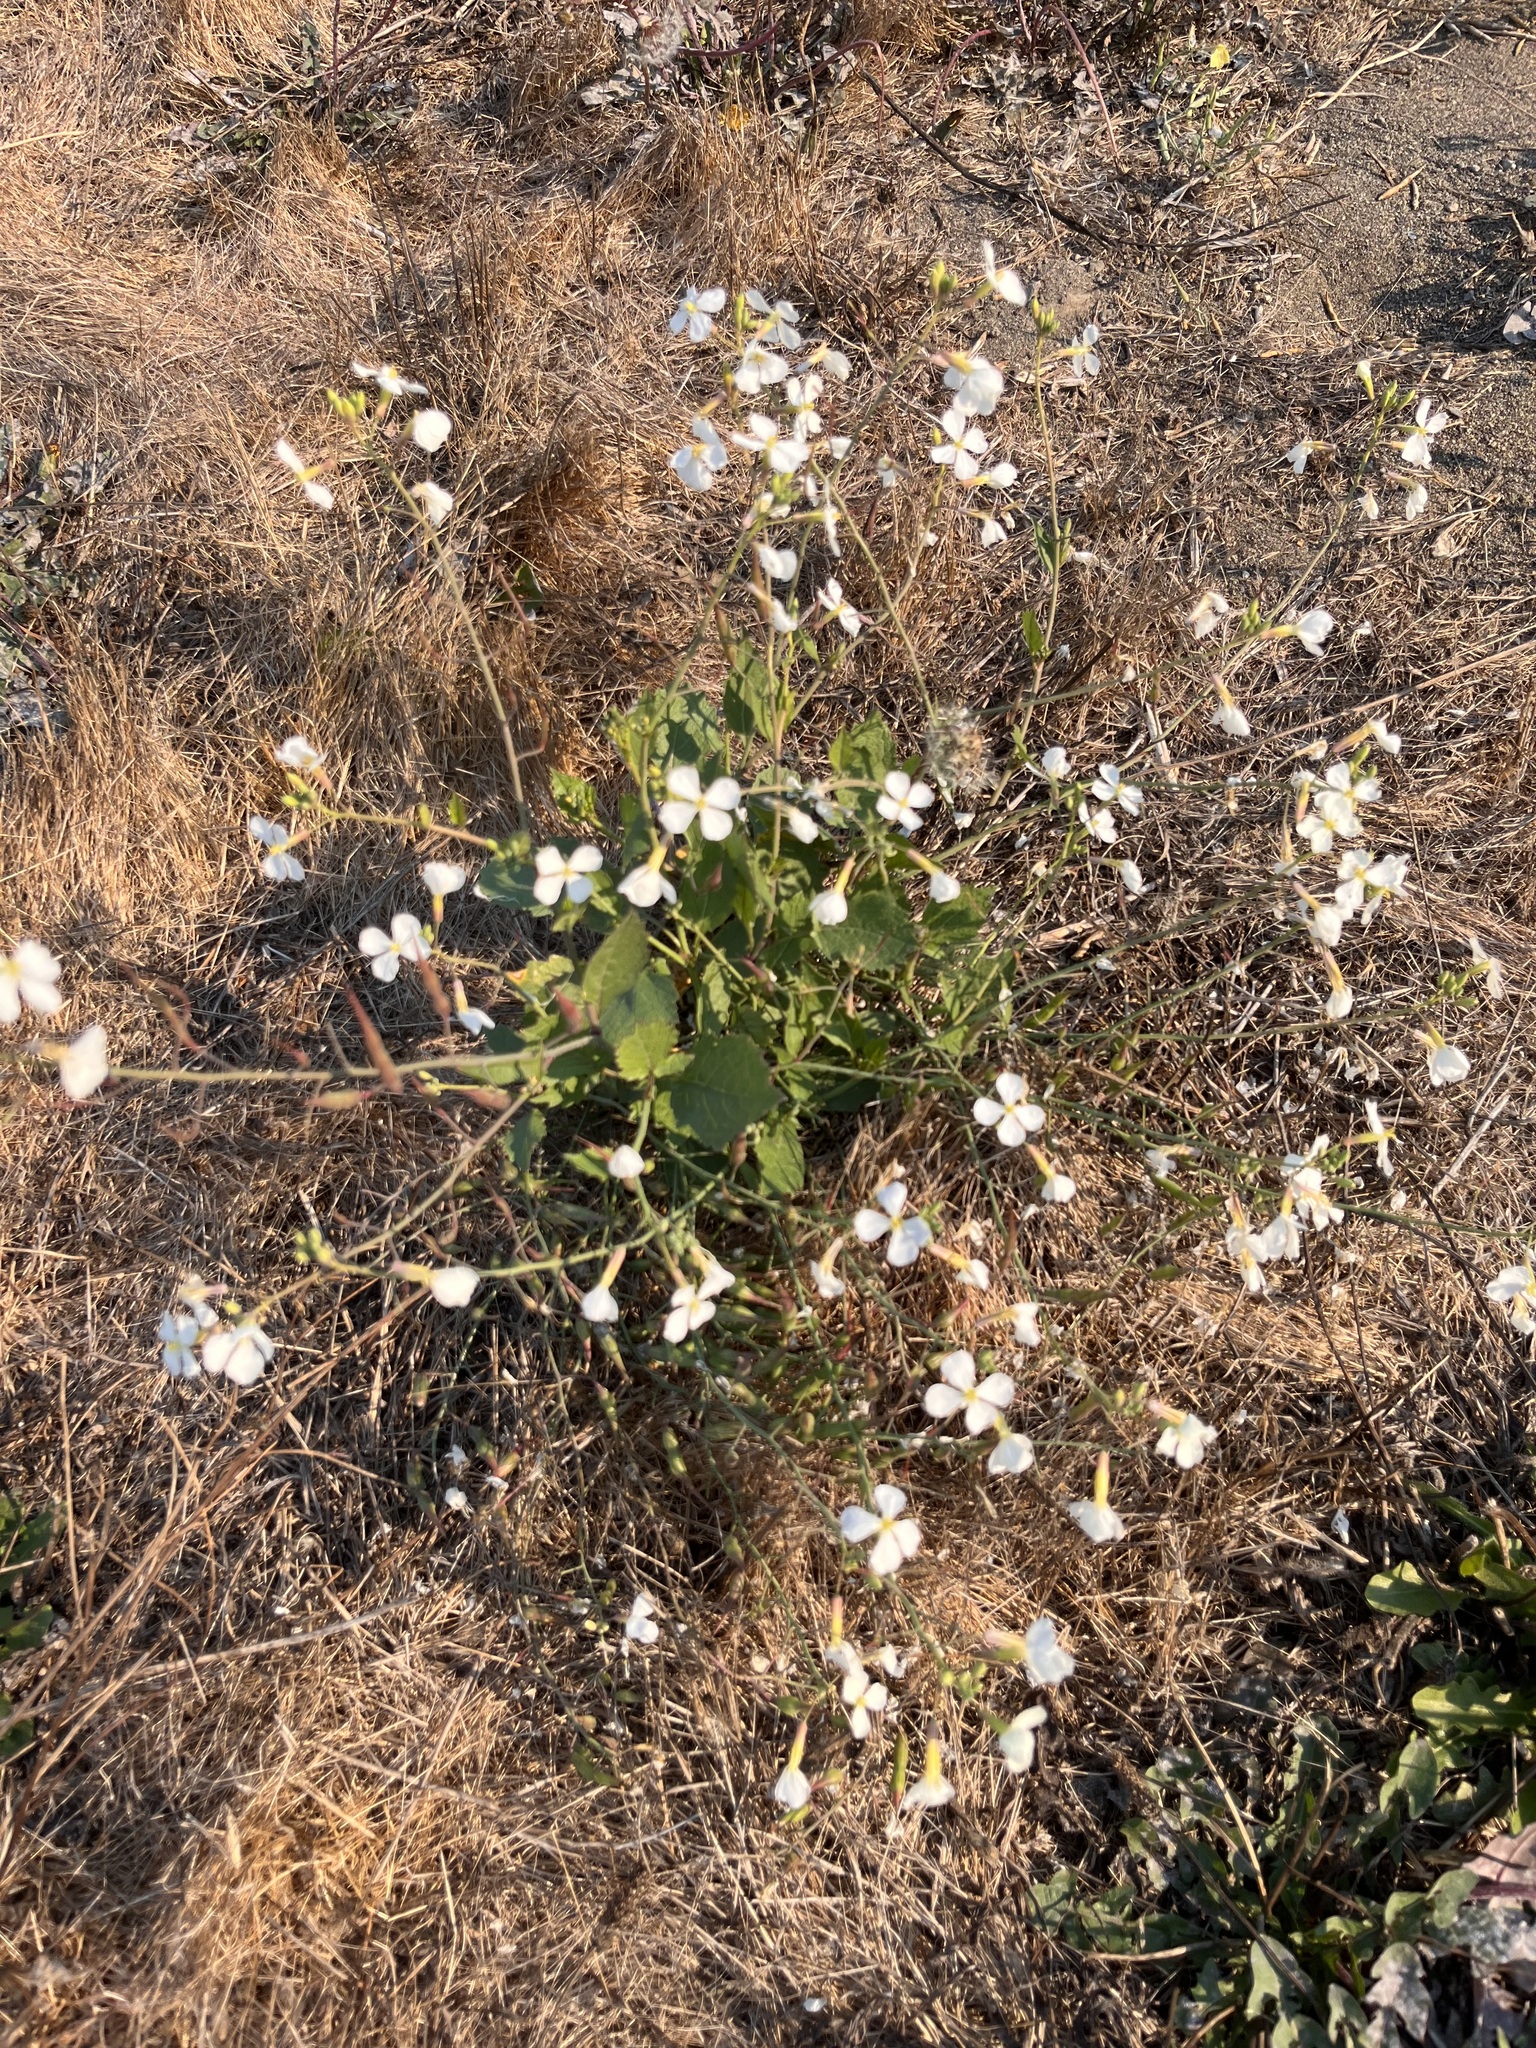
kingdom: Plantae
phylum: Tracheophyta
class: Magnoliopsida
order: Brassicales
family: Brassicaceae
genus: Raphanus
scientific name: Raphanus raphanistrum
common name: Wild radish
